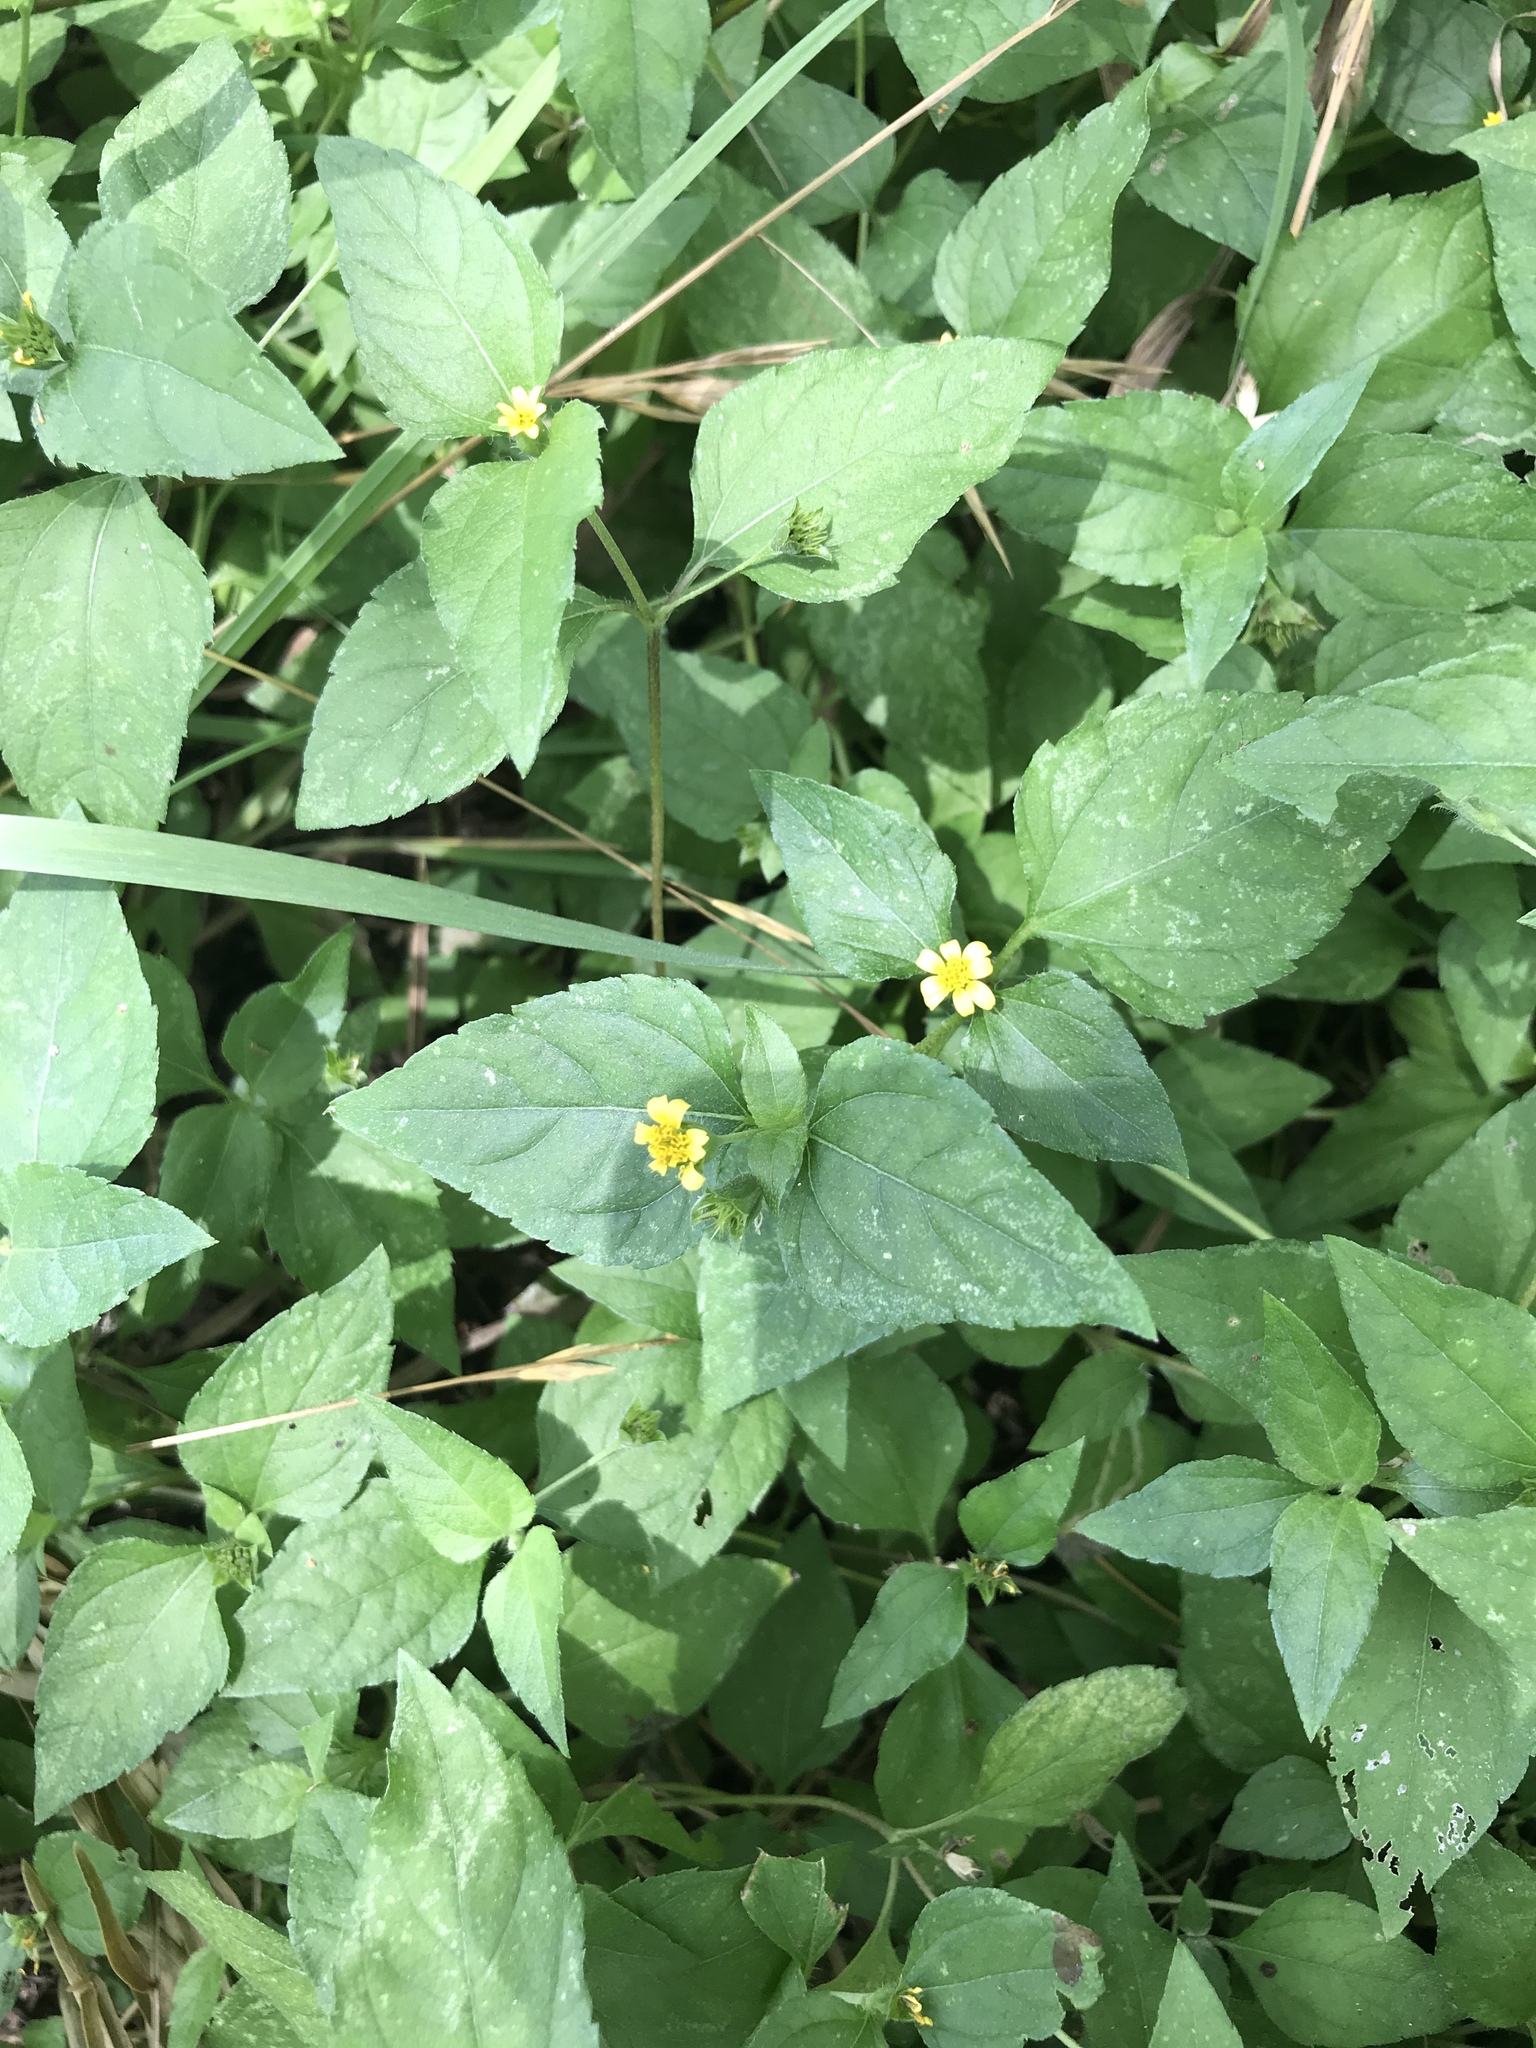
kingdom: Plantae
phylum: Tracheophyta
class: Magnoliopsida
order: Asterales
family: Asteraceae
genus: Calyptocarpus
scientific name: Calyptocarpus vialis
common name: Straggler daisy
